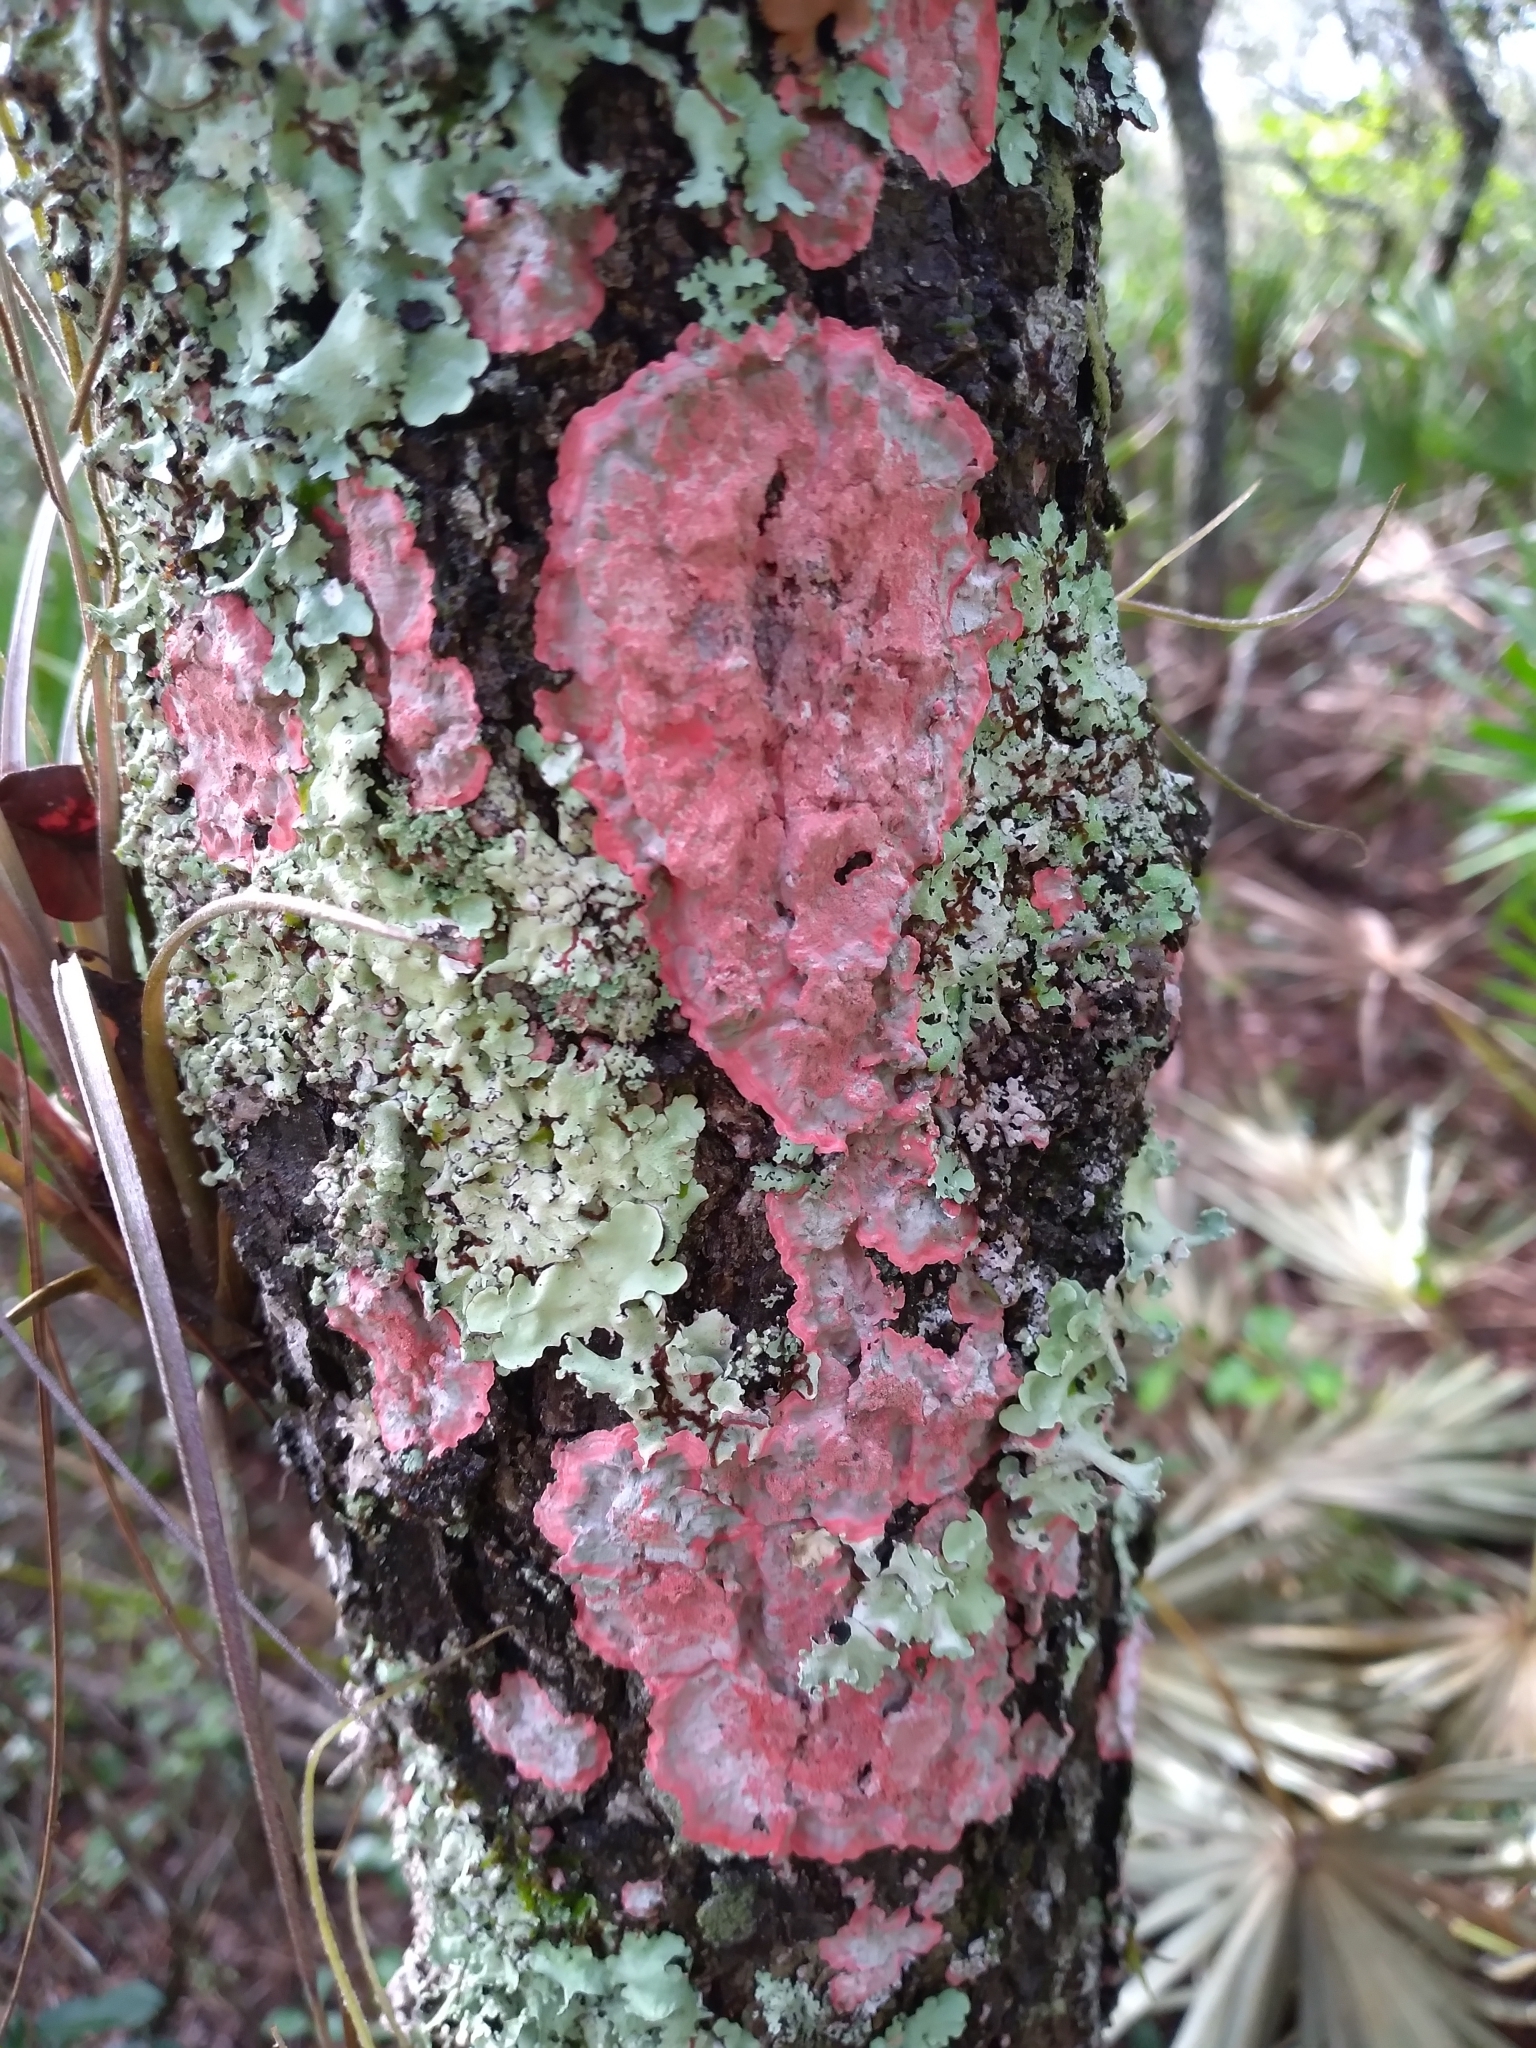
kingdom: Fungi
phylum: Ascomycota
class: Arthoniomycetes
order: Arthoniales
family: Arthoniaceae
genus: Herpothallon
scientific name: Herpothallon rubrocinctum
